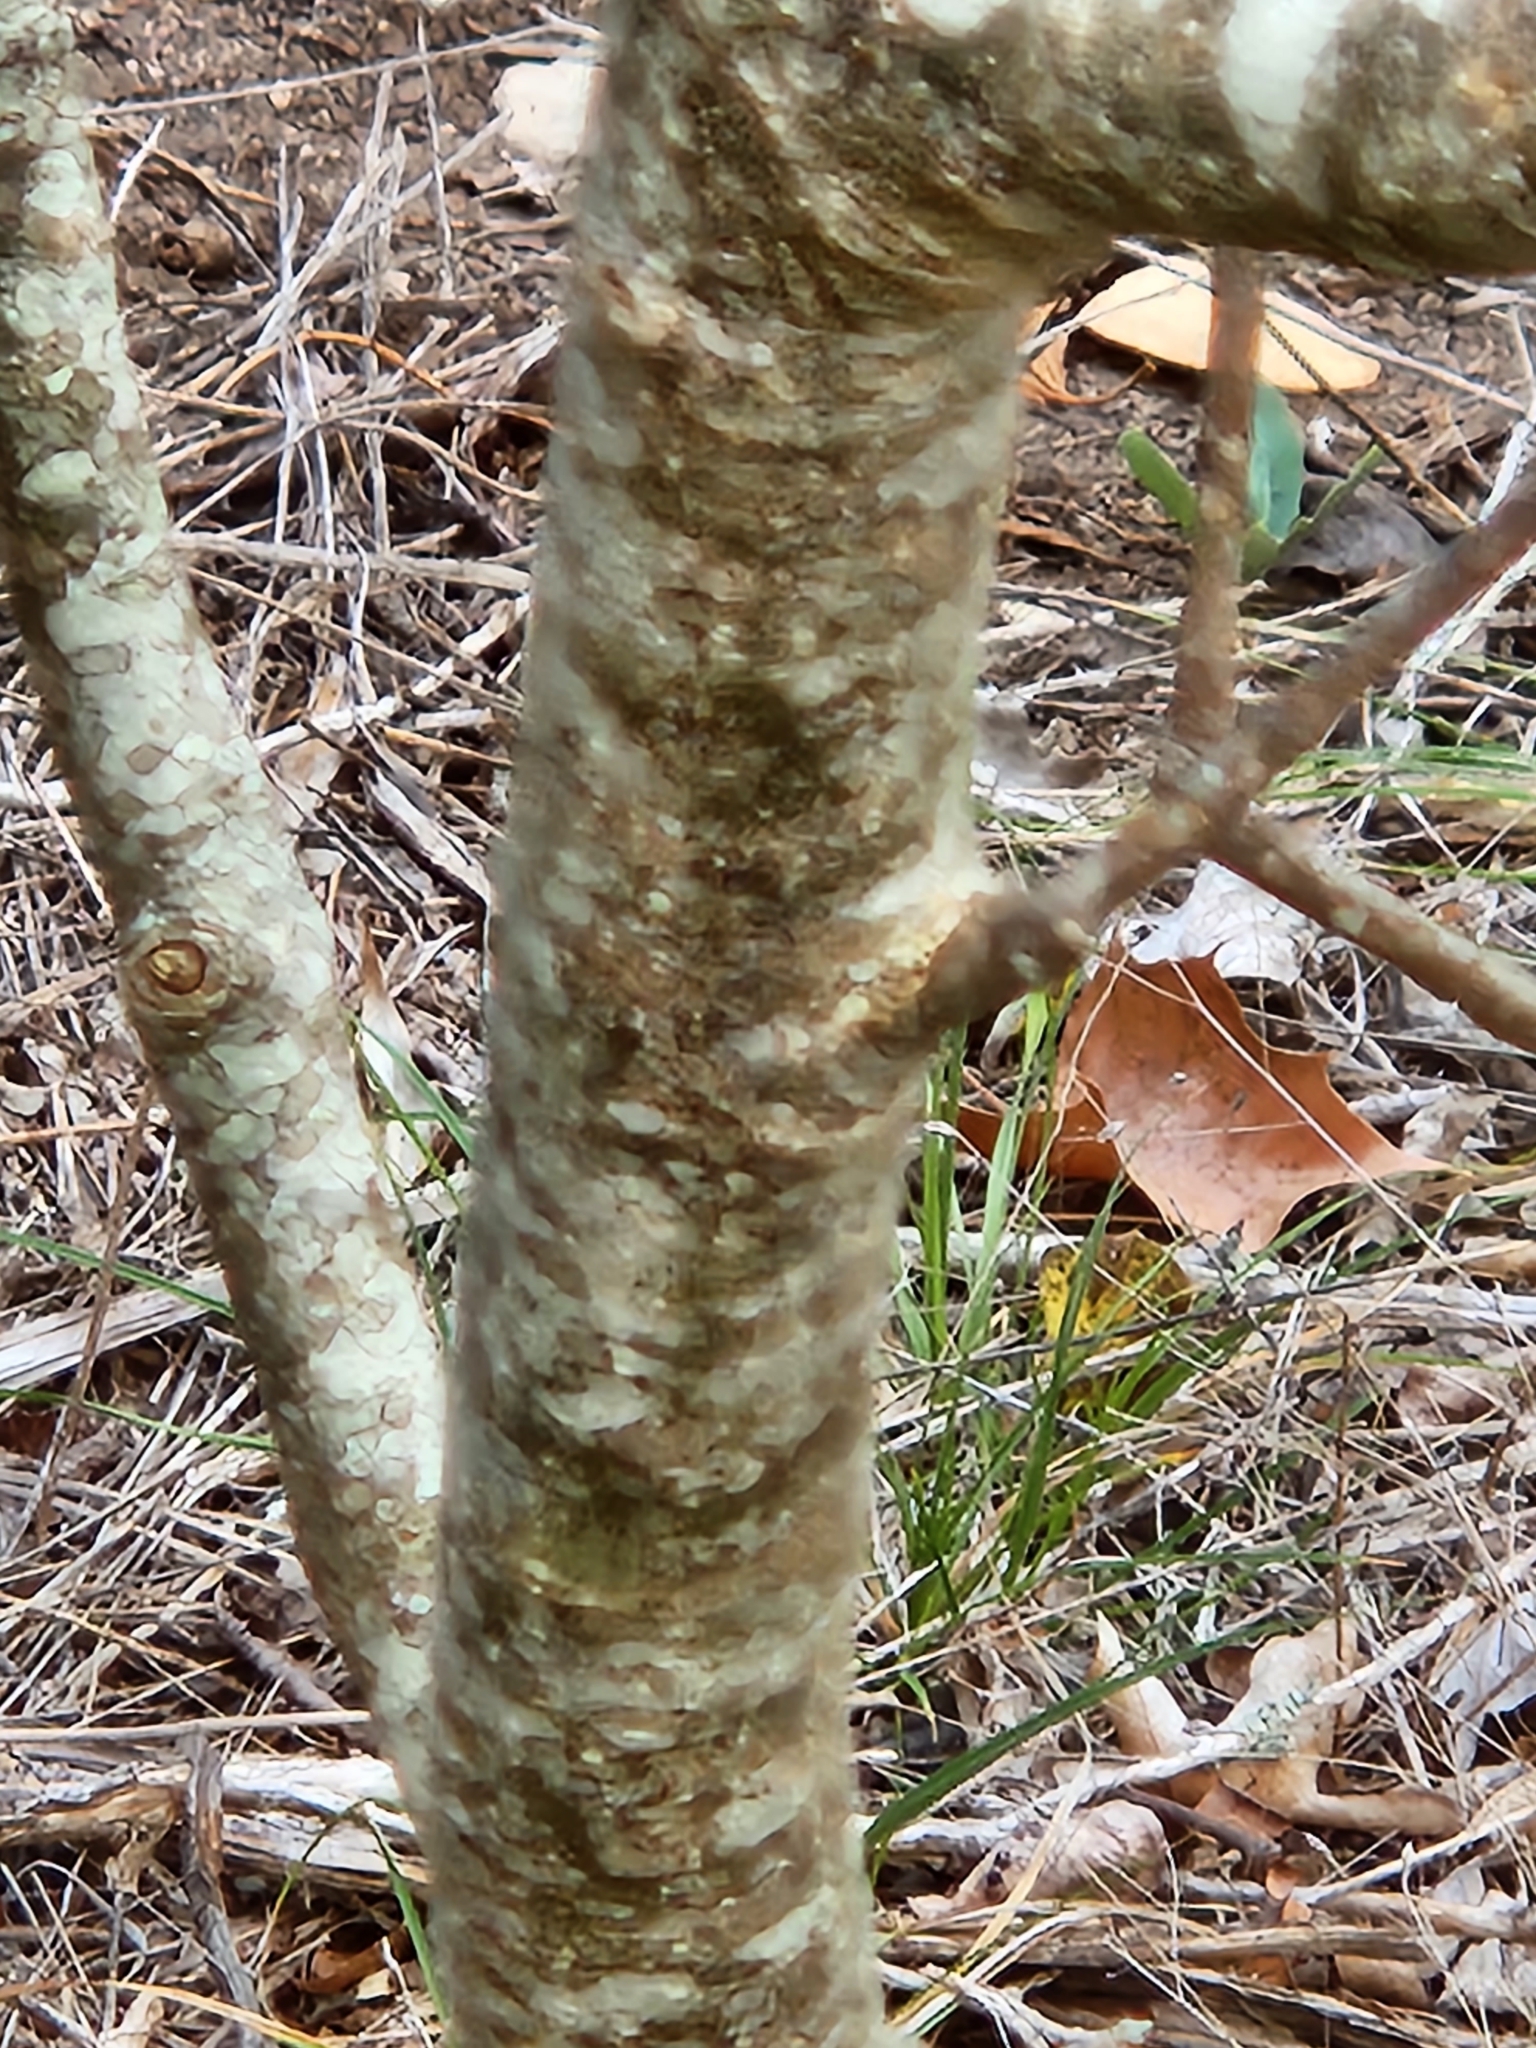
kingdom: Plantae
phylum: Tracheophyta
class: Magnoliopsida
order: Lamiales
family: Oleaceae
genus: Fraxinus
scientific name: Fraxinus albicans
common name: Texas ash
